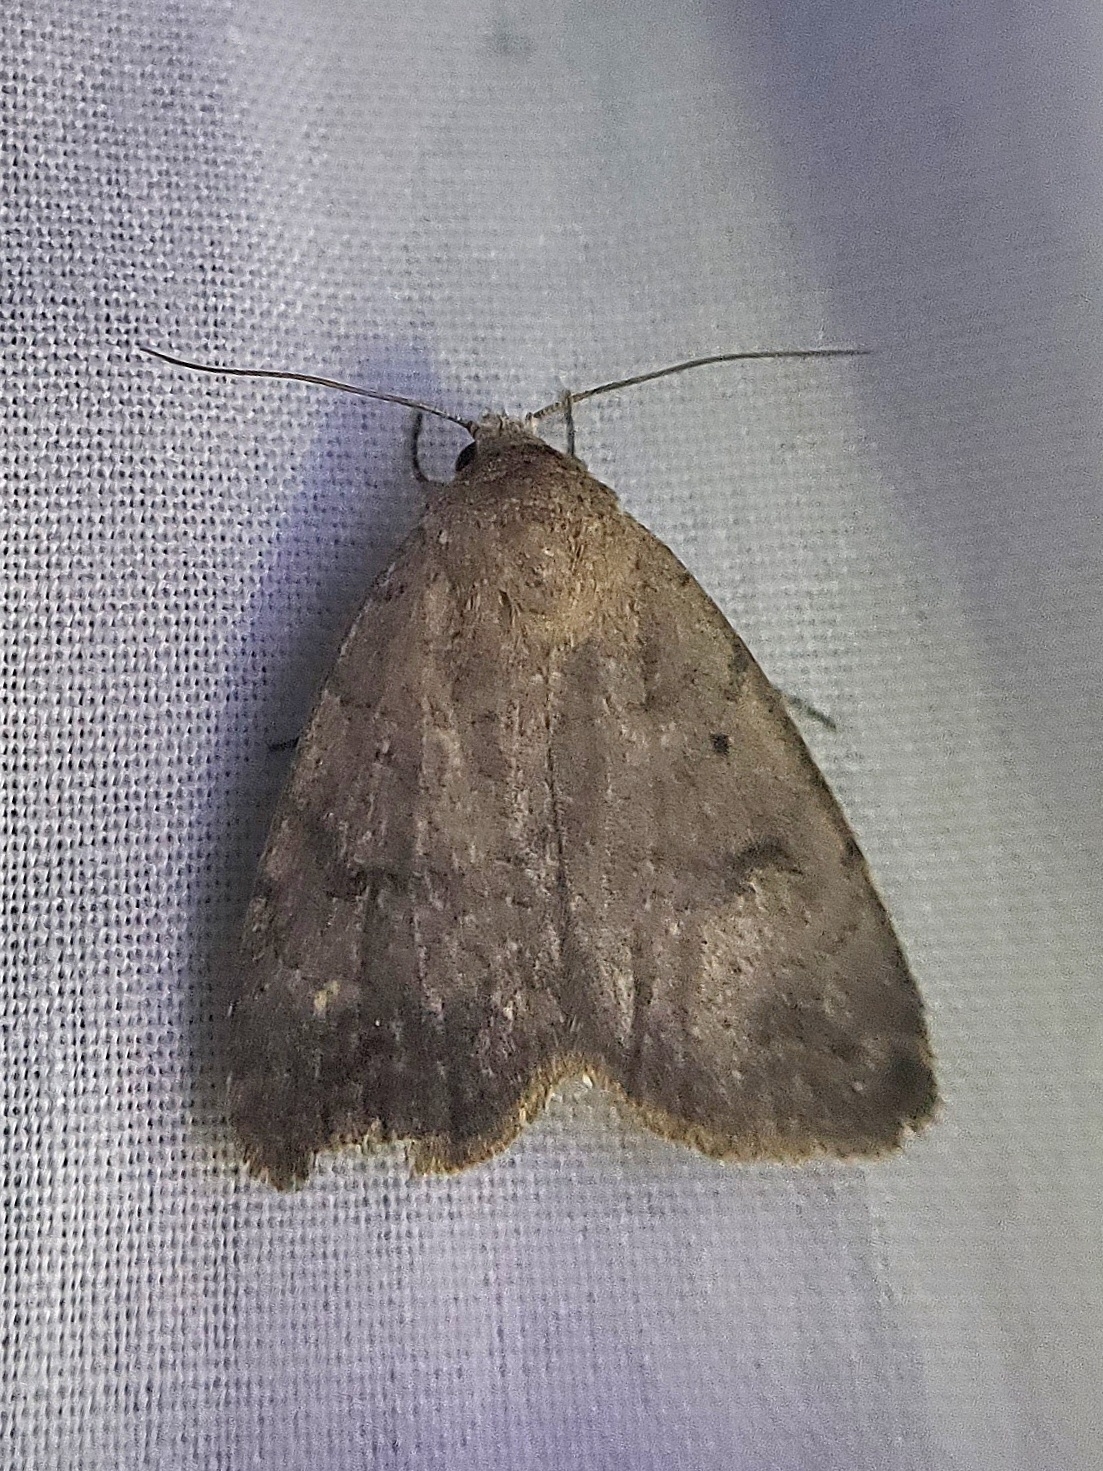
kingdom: Animalia
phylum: Arthropoda
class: Insecta
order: Lepidoptera
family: Noctuidae
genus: Athetis
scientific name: Athetis tarda
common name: Slowpoke moth
